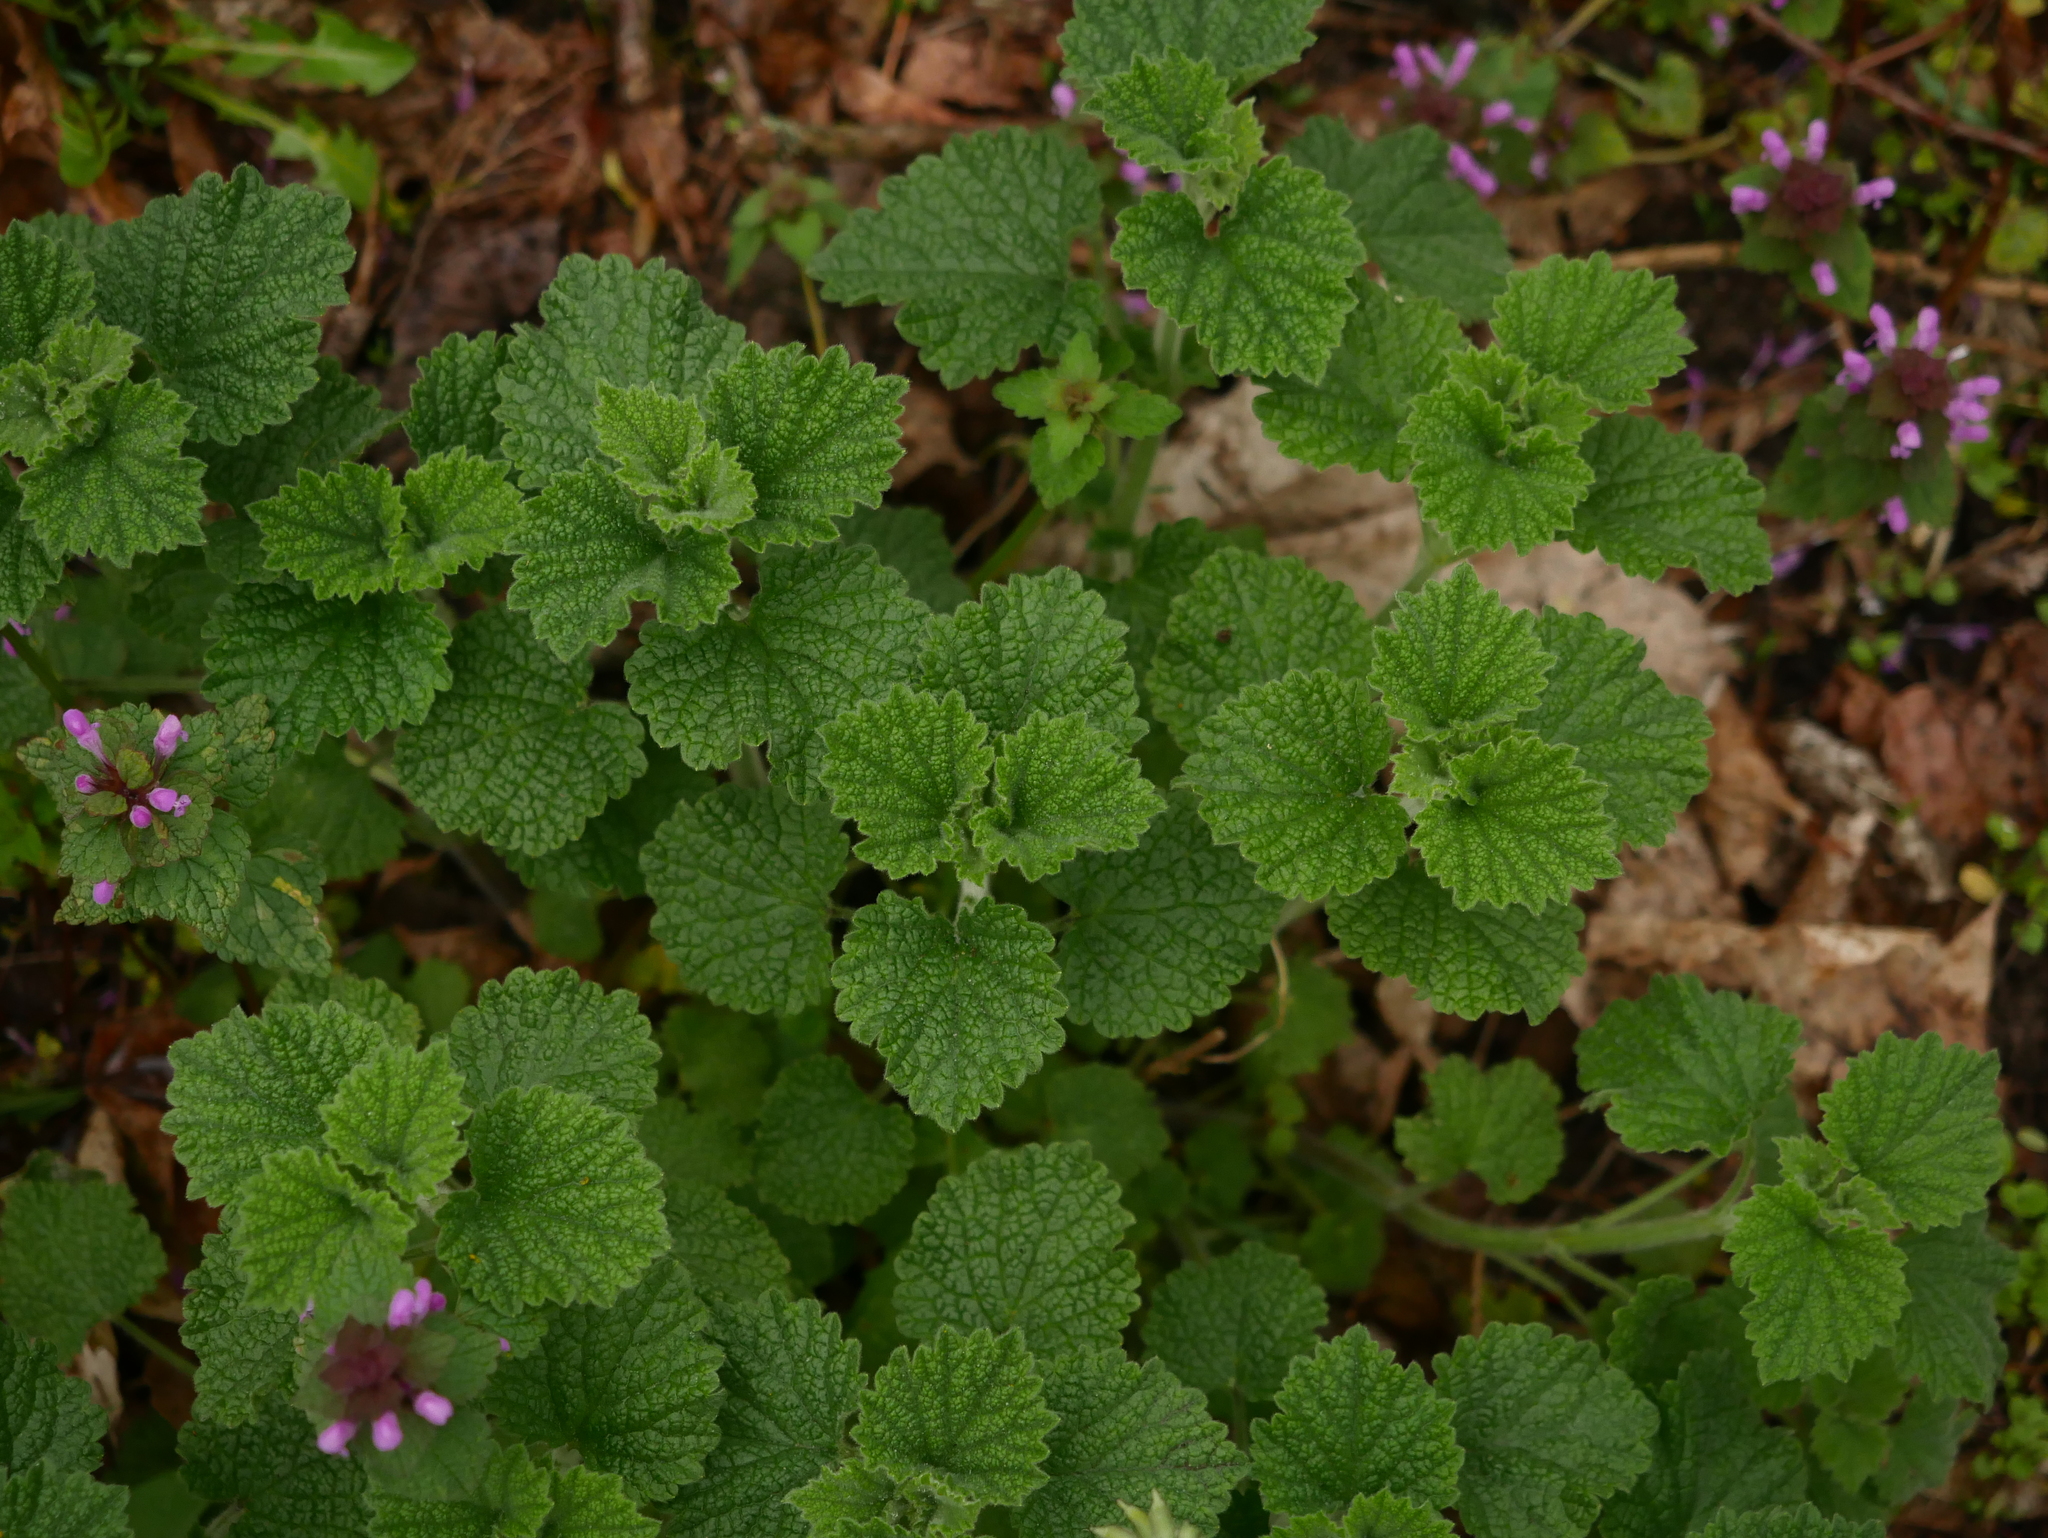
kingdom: Plantae
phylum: Tracheophyta
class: Magnoliopsida
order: Lamiales
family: Lamiaceae
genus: Ballota
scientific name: Ballota nigra
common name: Black horehound
